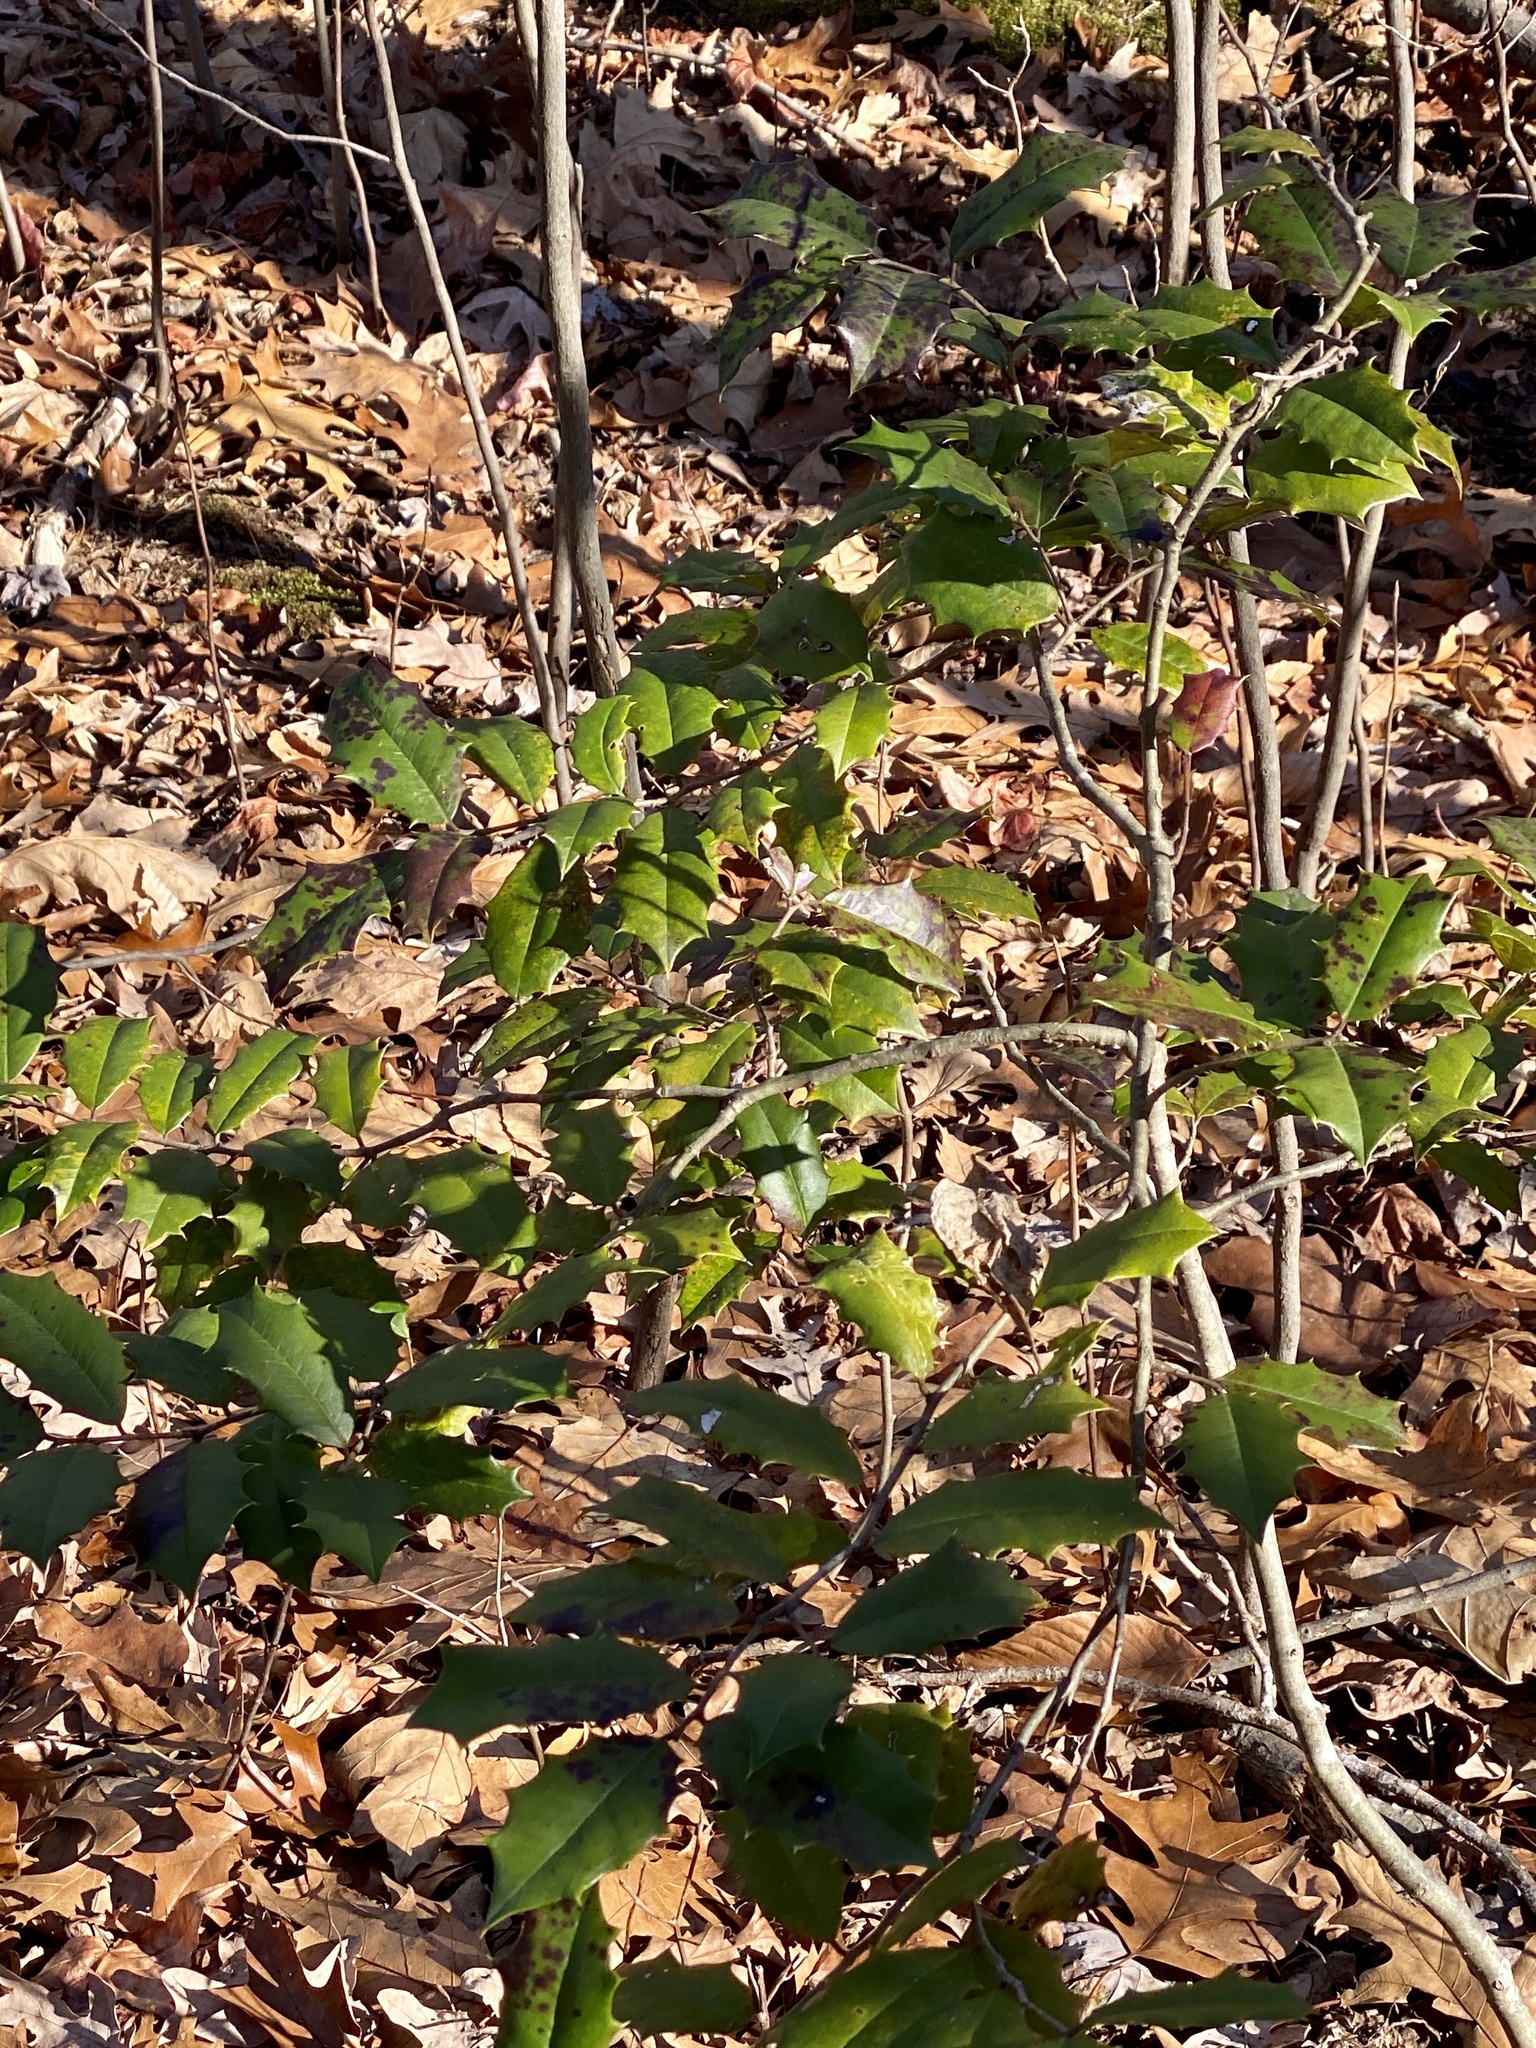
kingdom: Plantae
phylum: Tracheophyta
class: Magnoliopsida
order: Aquifoliales
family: Aquifoliaceae
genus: Ilex
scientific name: Ilex opaca
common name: American holly
